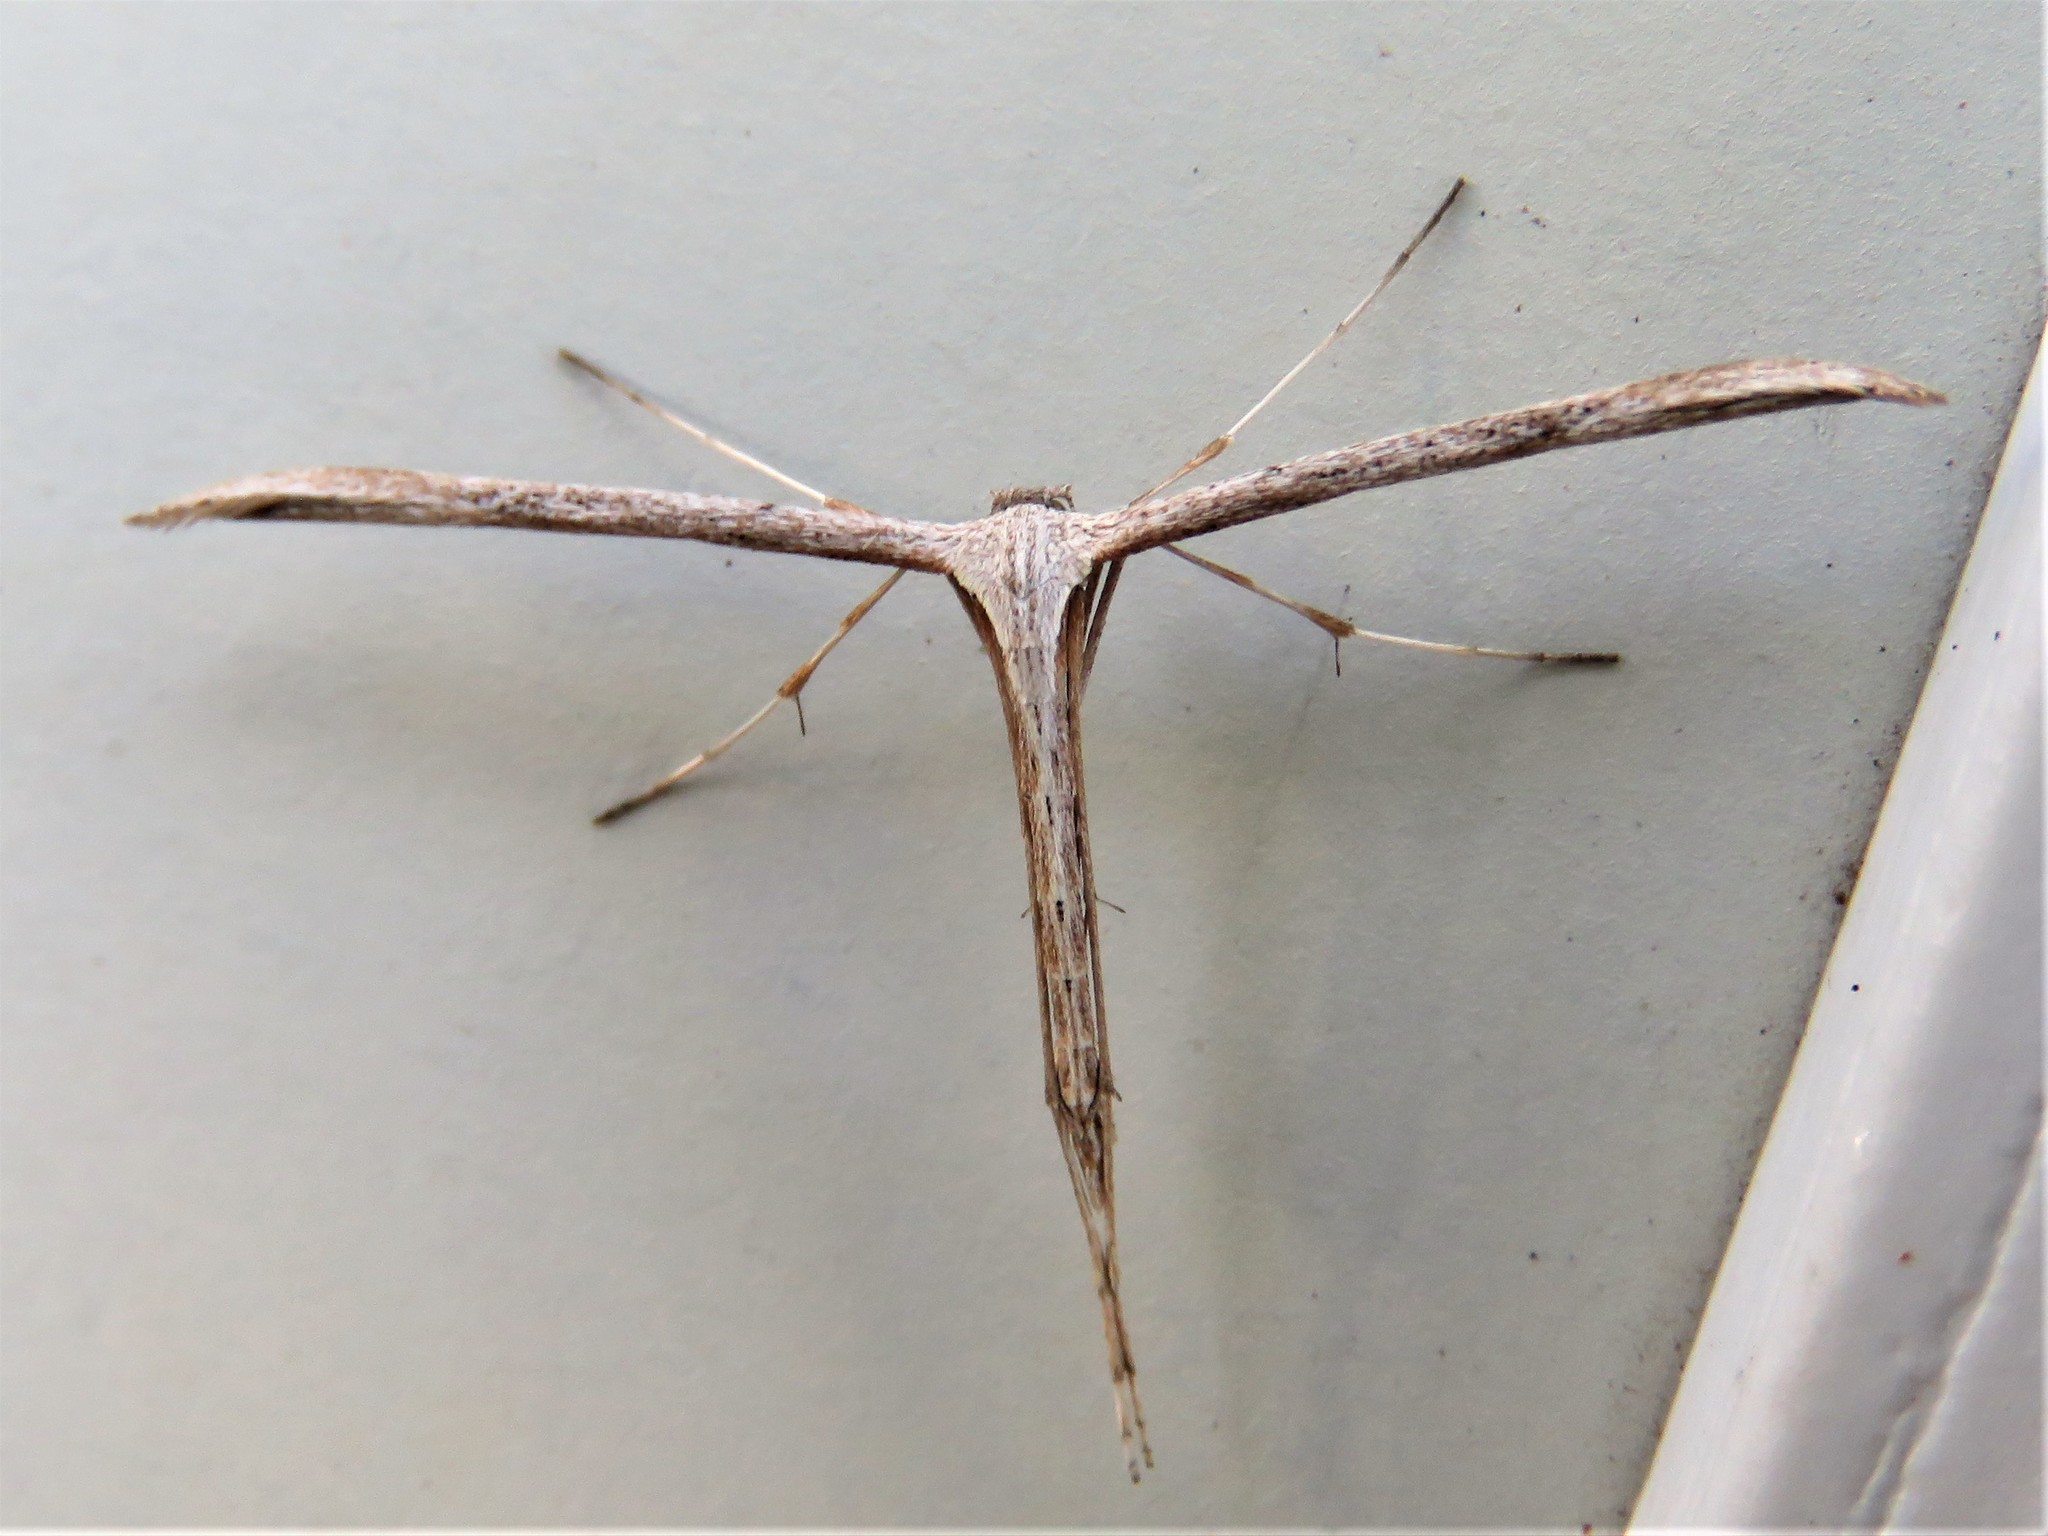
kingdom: Animalia
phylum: Arthropoda
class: Insecta
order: Lepidoptera
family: Pterophoridae
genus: Emmelina
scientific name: Emmelina monodactyla
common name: Common plume
